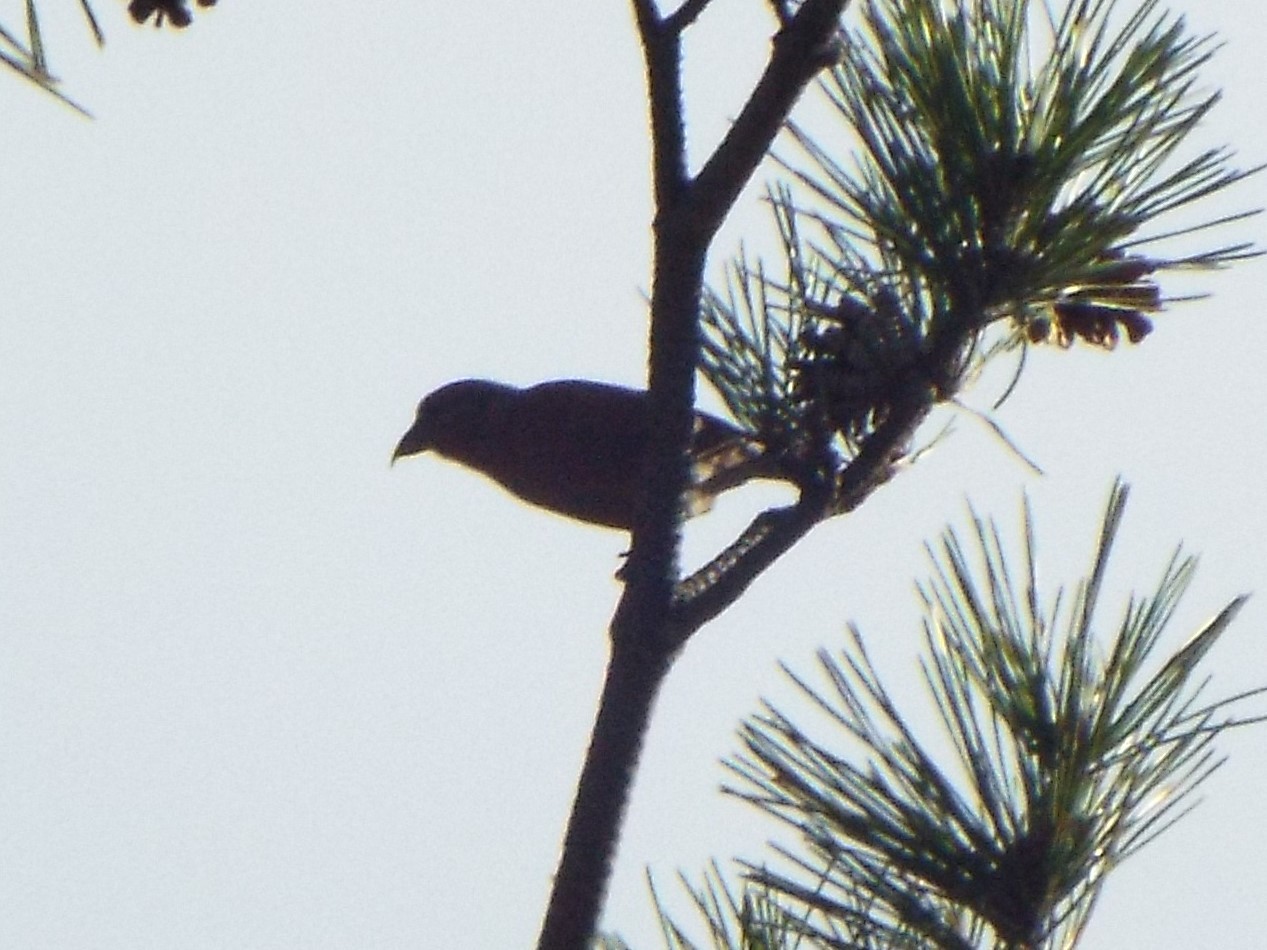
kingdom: Animalia
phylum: Chordata
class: Aves
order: Passeriformes
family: Fringillidae
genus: Loxia
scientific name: Loxia curvirostra
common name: Red crossbill
